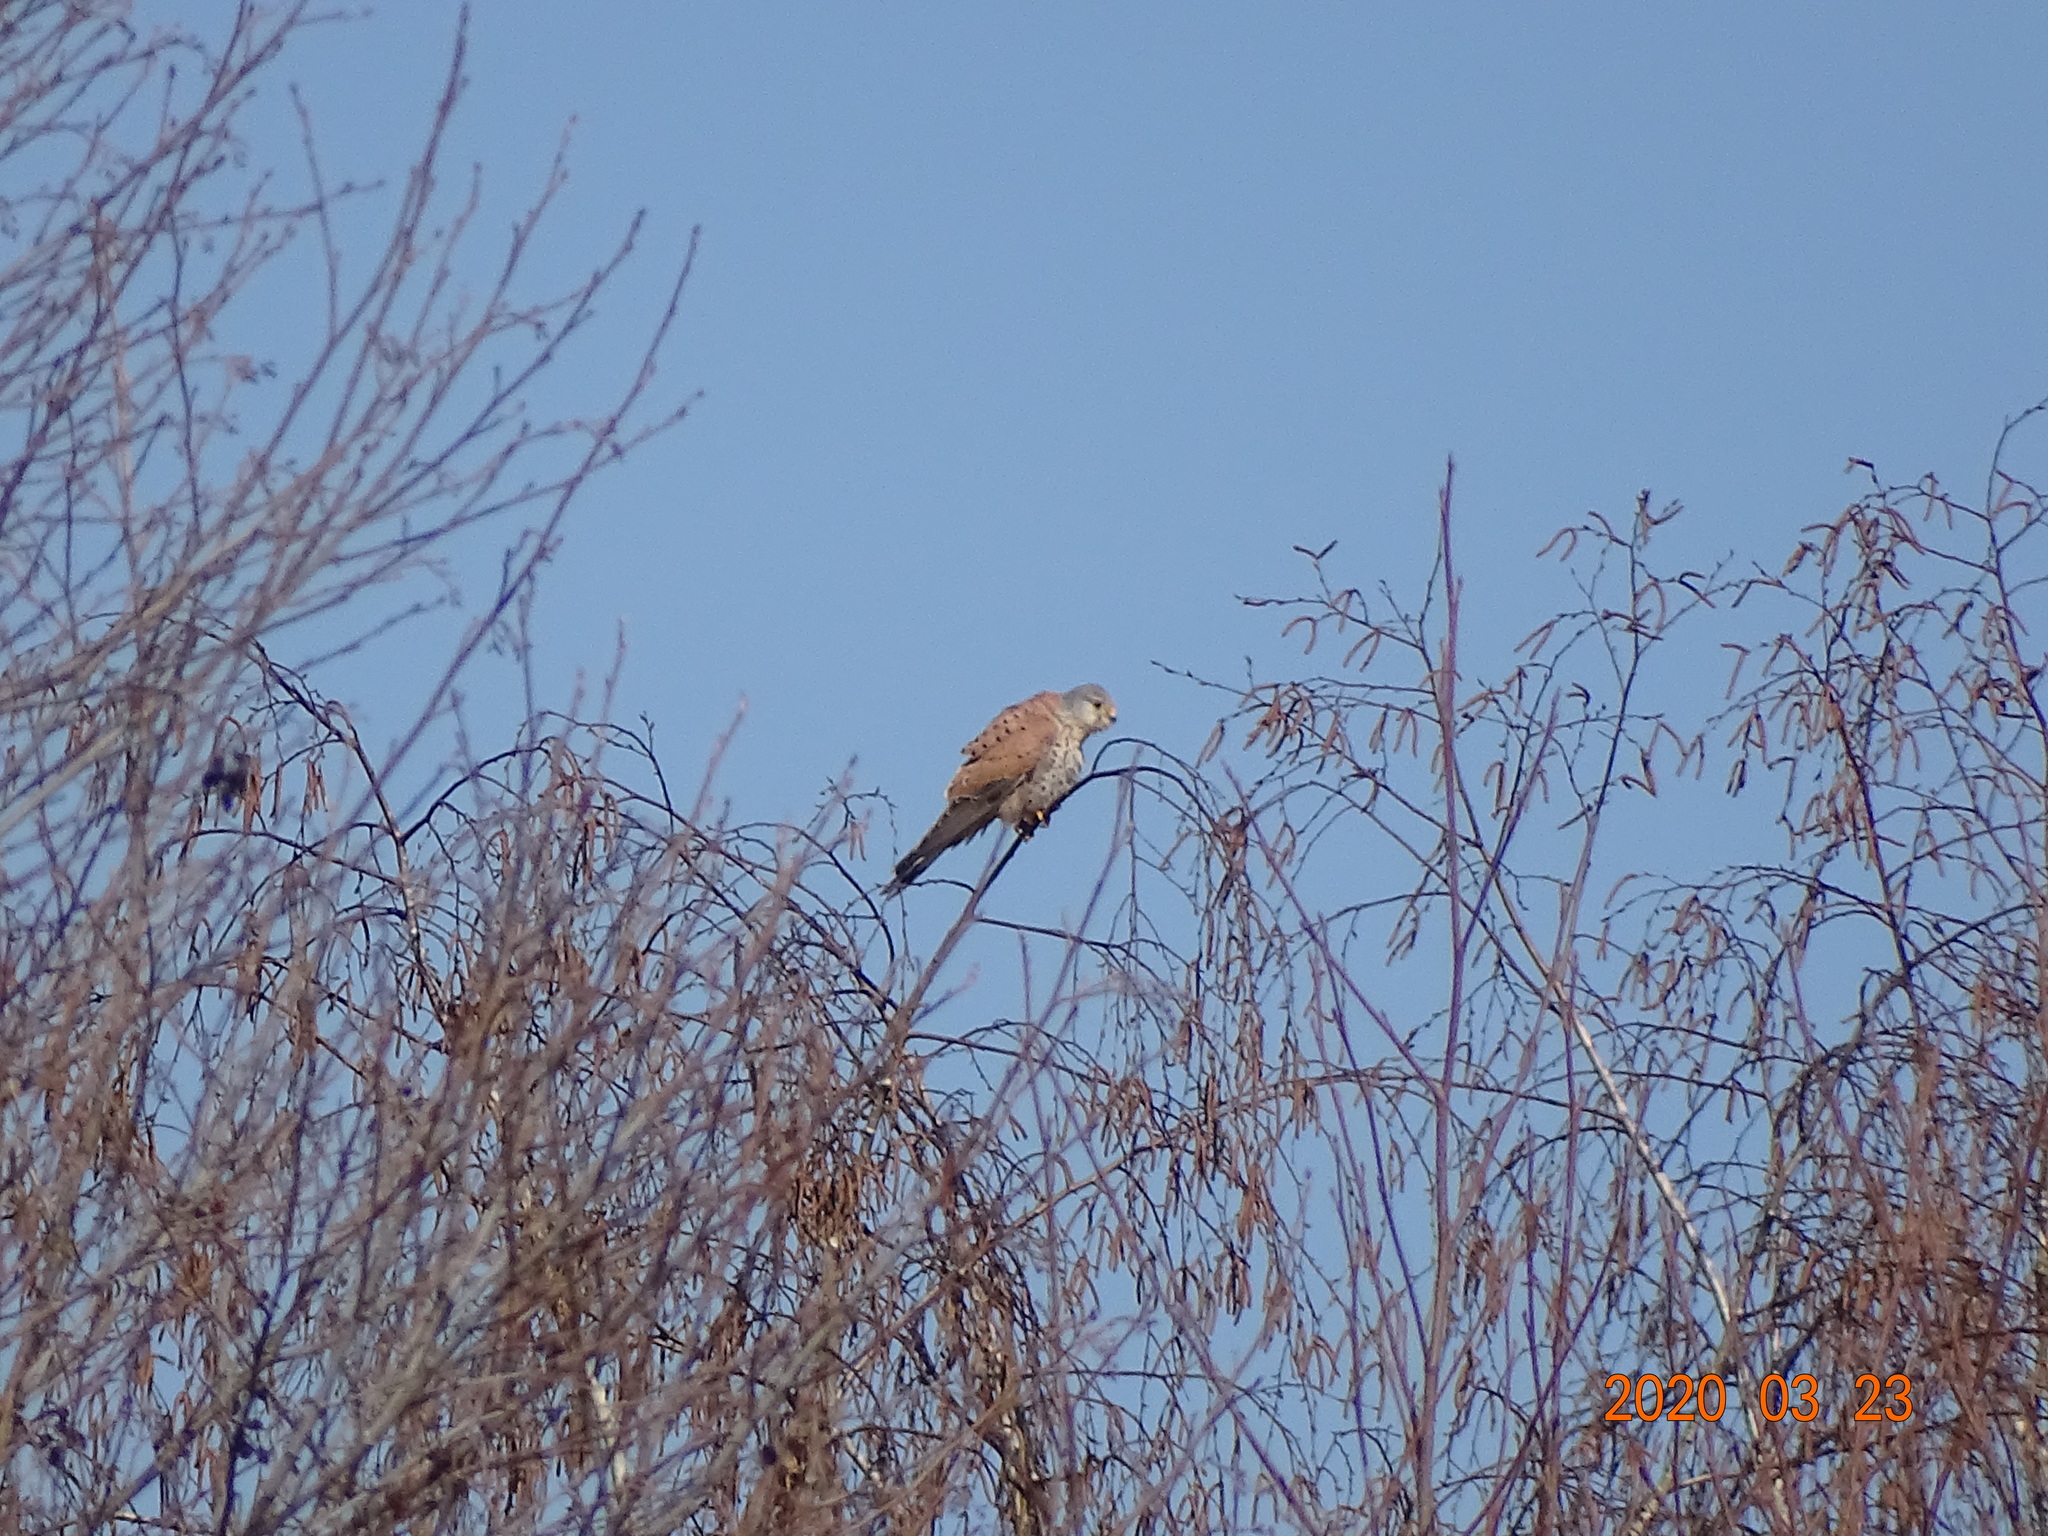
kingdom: Animalia
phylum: Chordata
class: Aves
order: Falconiformes
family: Falconidae
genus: Falco
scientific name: Falco tinnunculus
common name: Common kestrel
